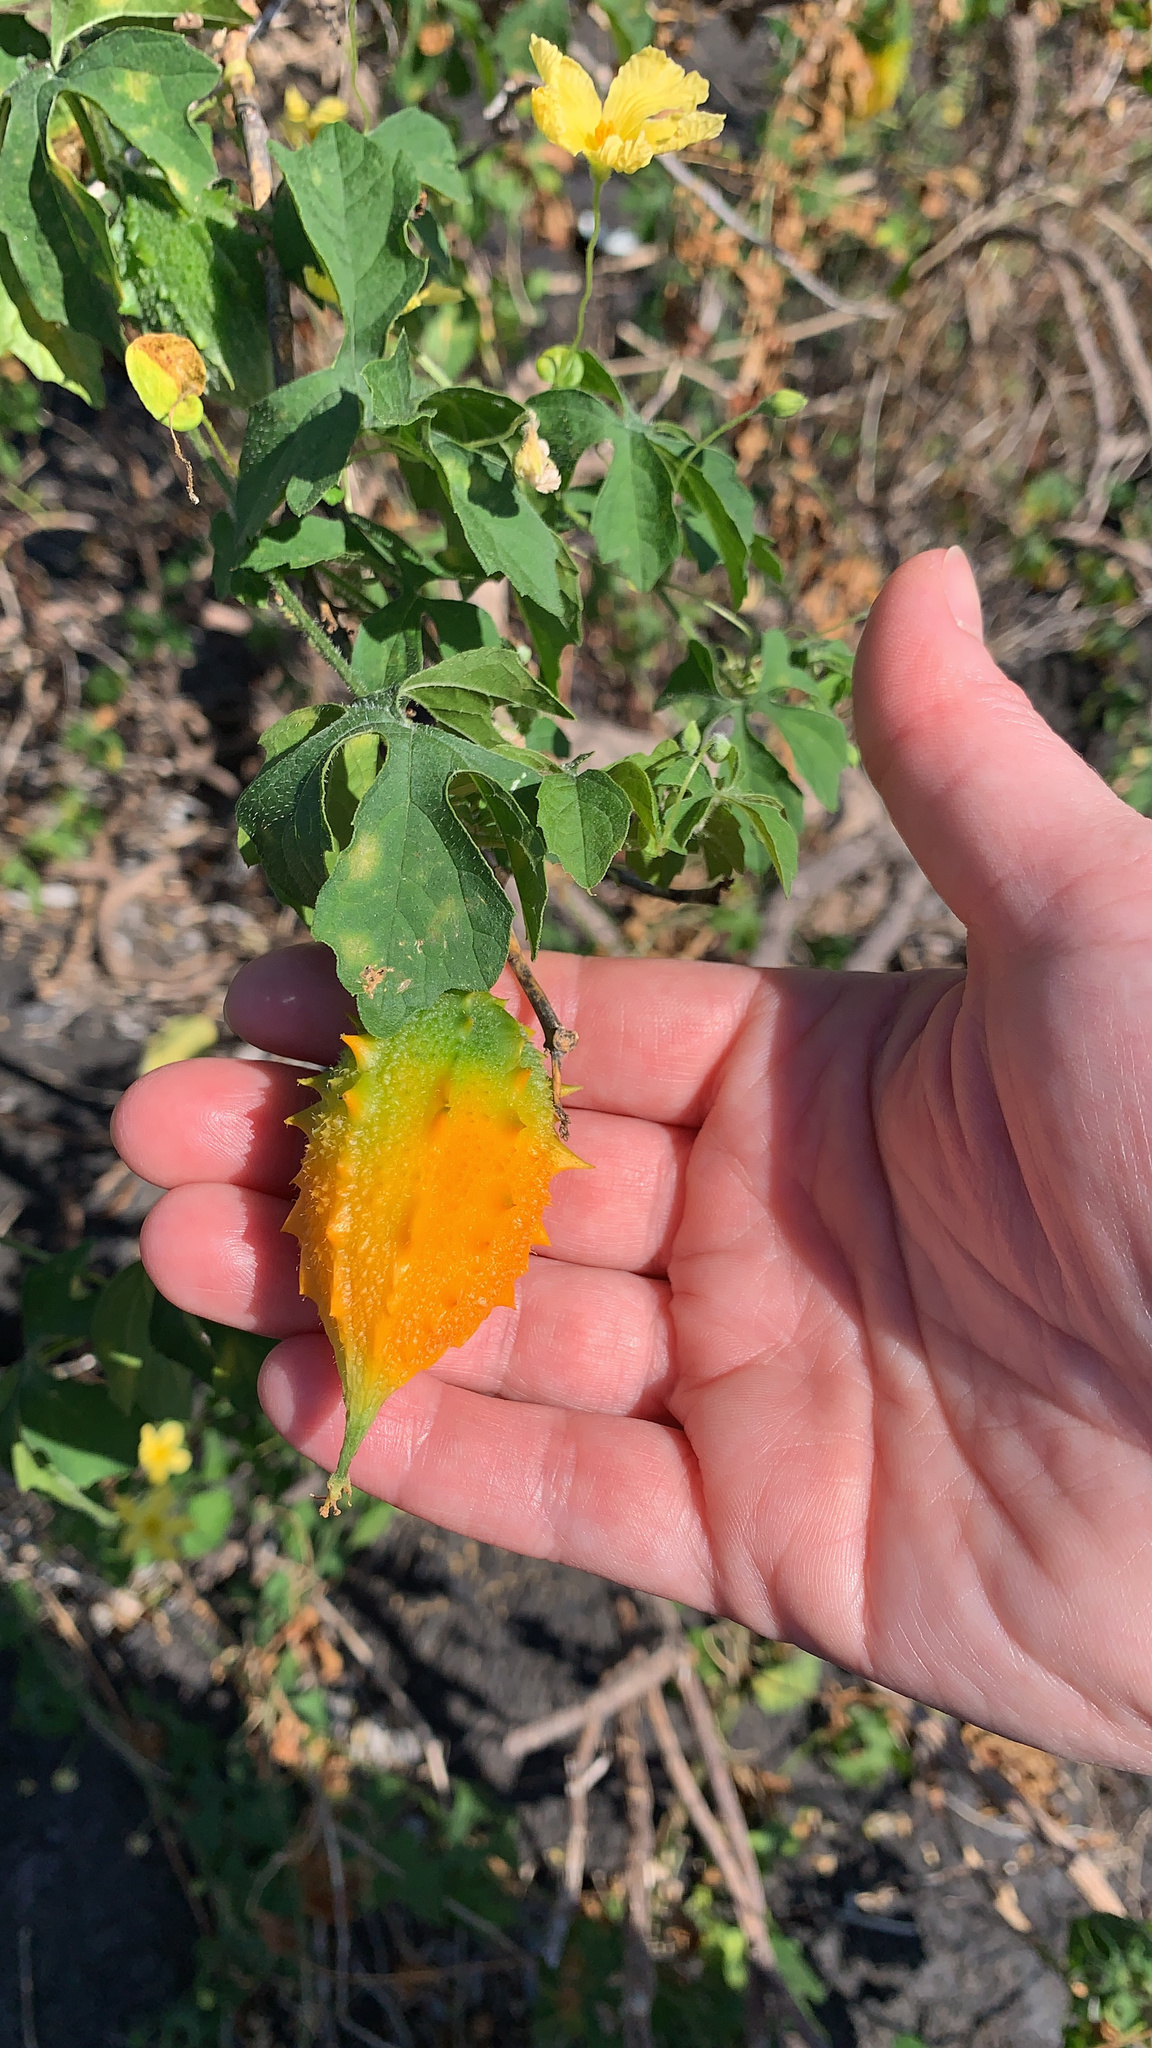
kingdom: Plantae
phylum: Tracheophyta
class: Magnoliopsida
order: Cucurbitales
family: Cucurbitaceae
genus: Momordica
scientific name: Momordica charantia
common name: Balsampear
